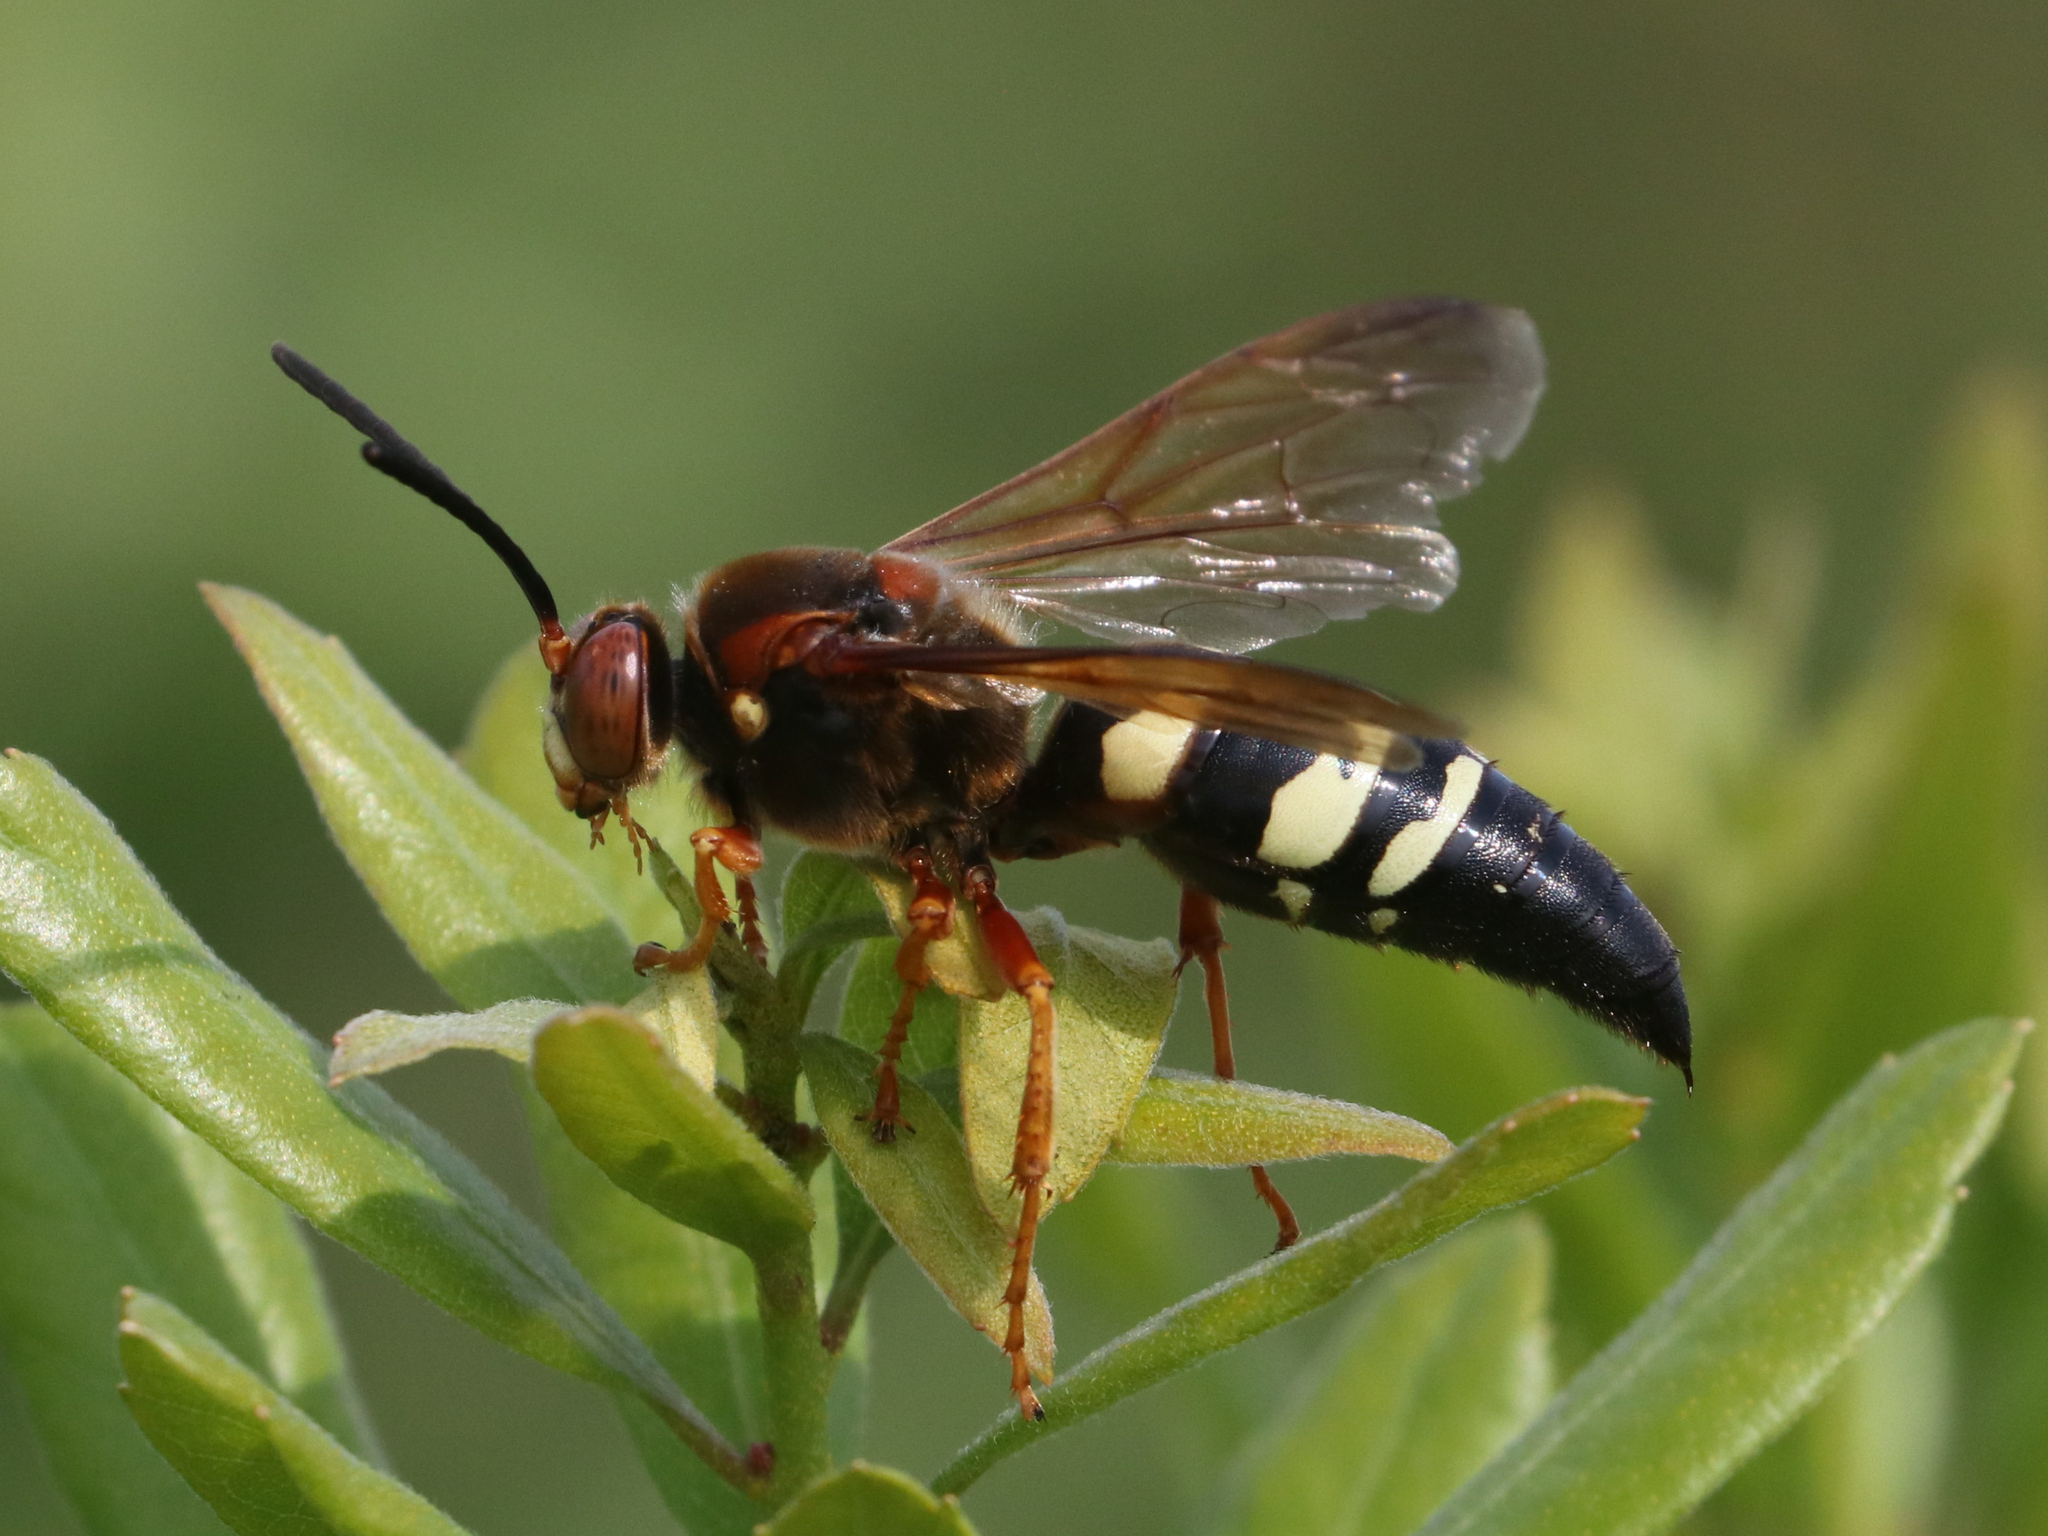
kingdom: Animalia
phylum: Arthropoda
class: Insecta
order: Hymenoptera
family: Crabronidae
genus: Sphecius
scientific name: Sphecius speciosus
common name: Cicada killer
